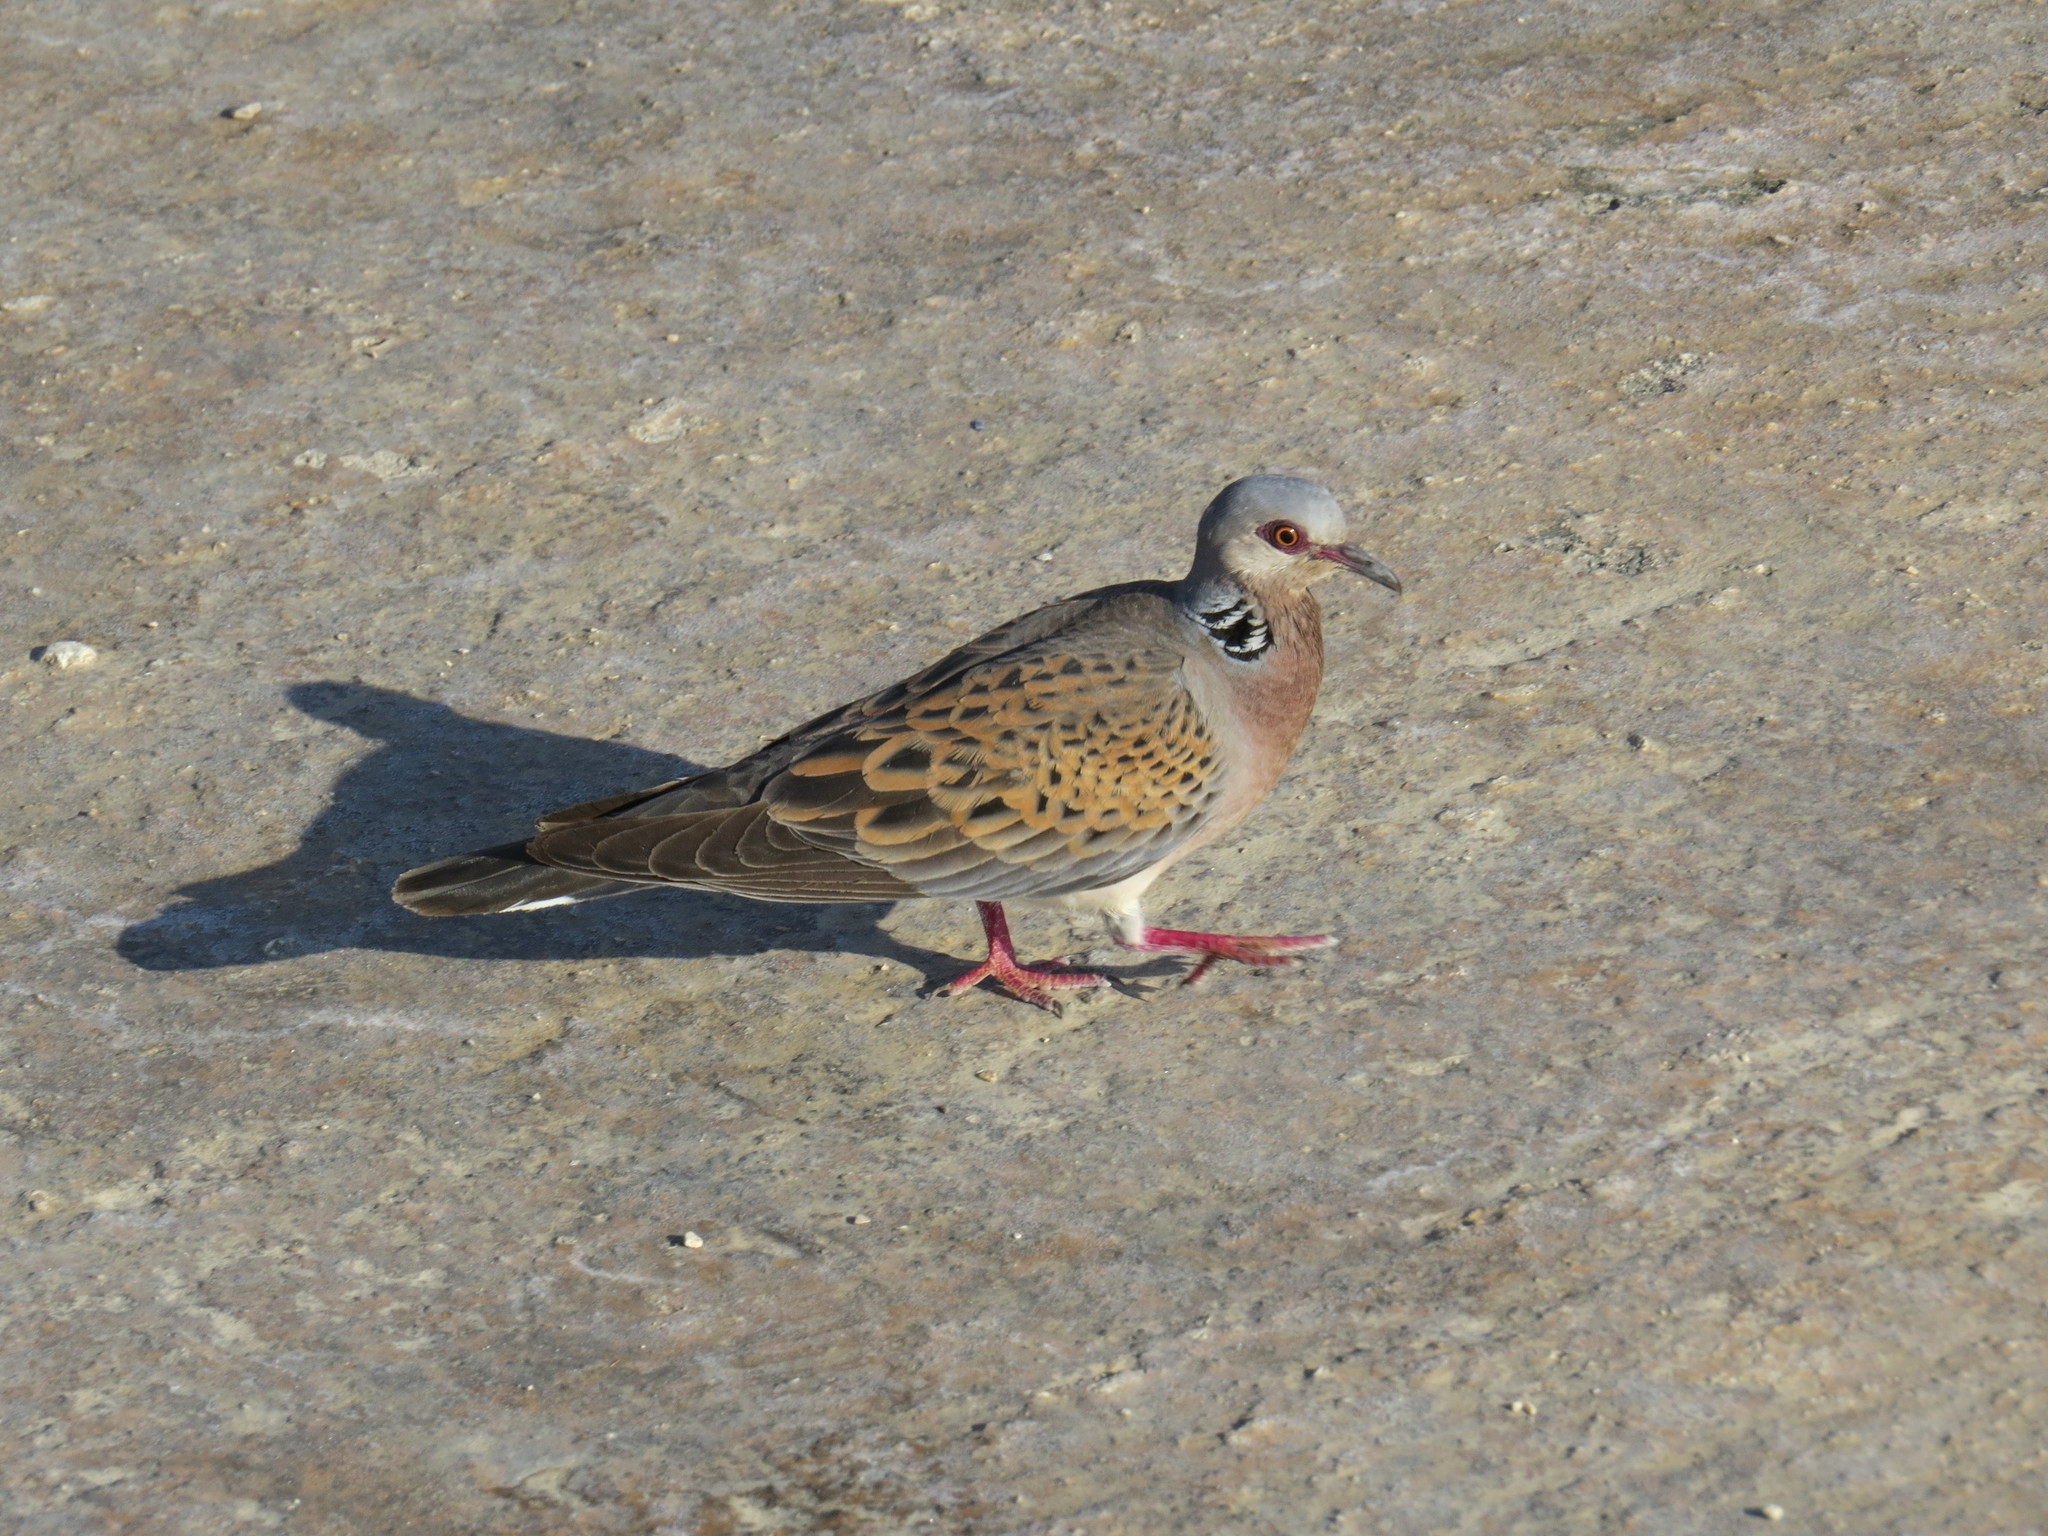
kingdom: Animalia
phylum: Chordata
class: Aves
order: Columbiformes
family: Columbidae
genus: Streptopelia
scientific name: Streptopelia turtur
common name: European turtle dove
